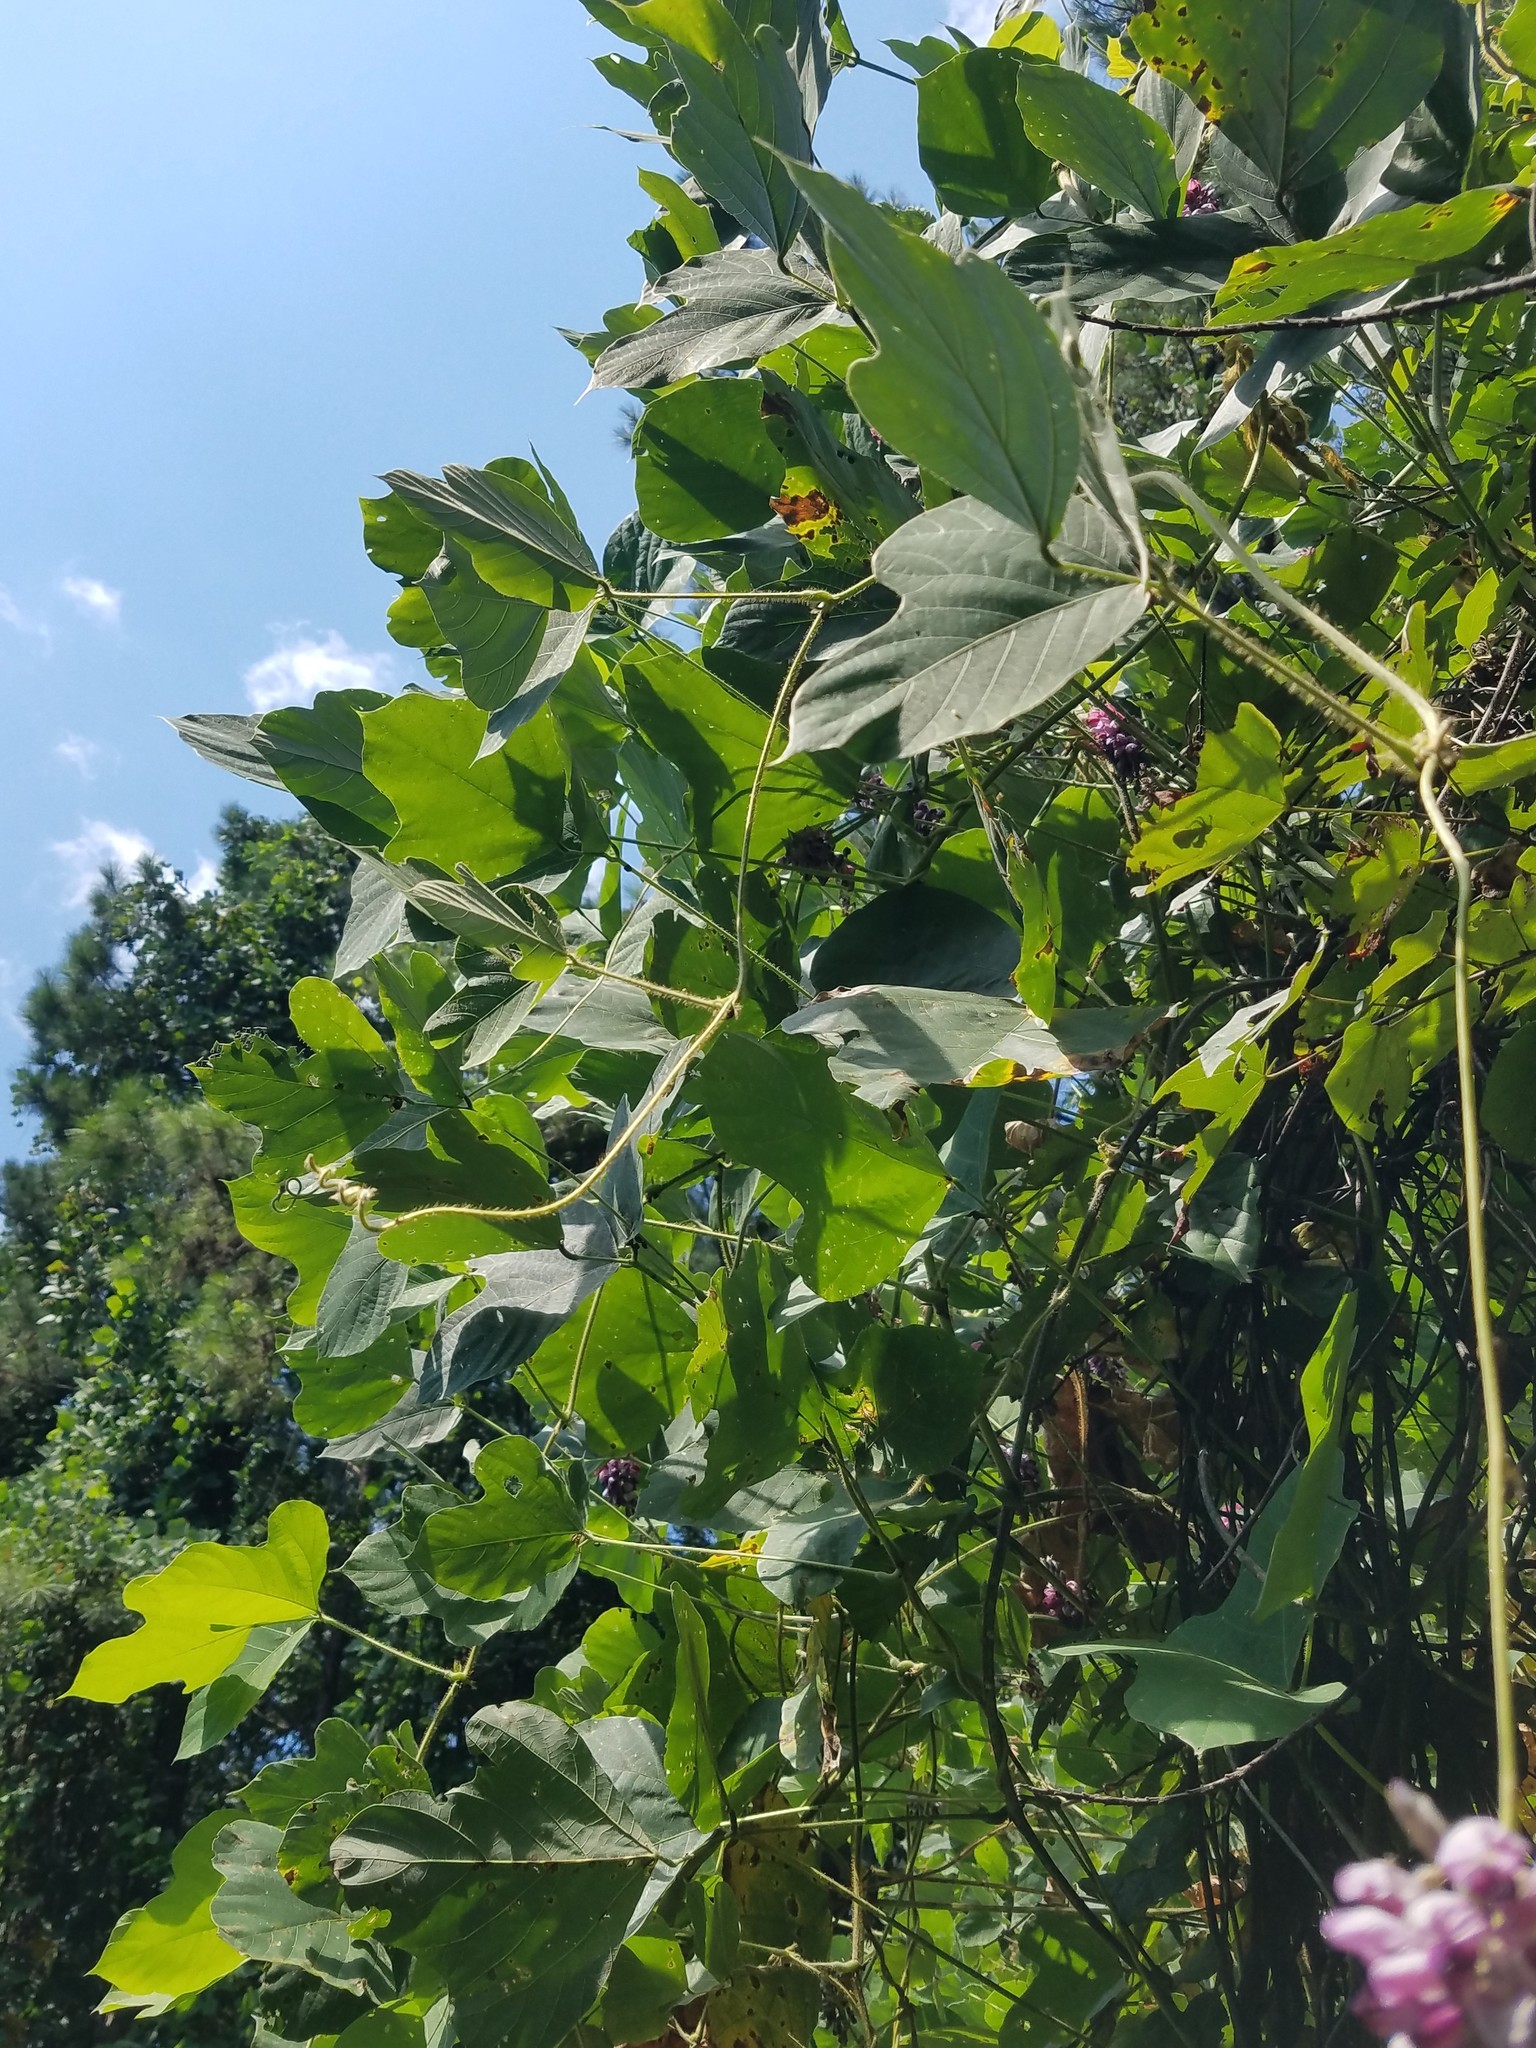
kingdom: Plantae
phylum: Tracheophyta
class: Magnoliopsida
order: Fabales
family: Fabaceae
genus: Pueraria
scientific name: Pueraria montana
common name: Kudzu
